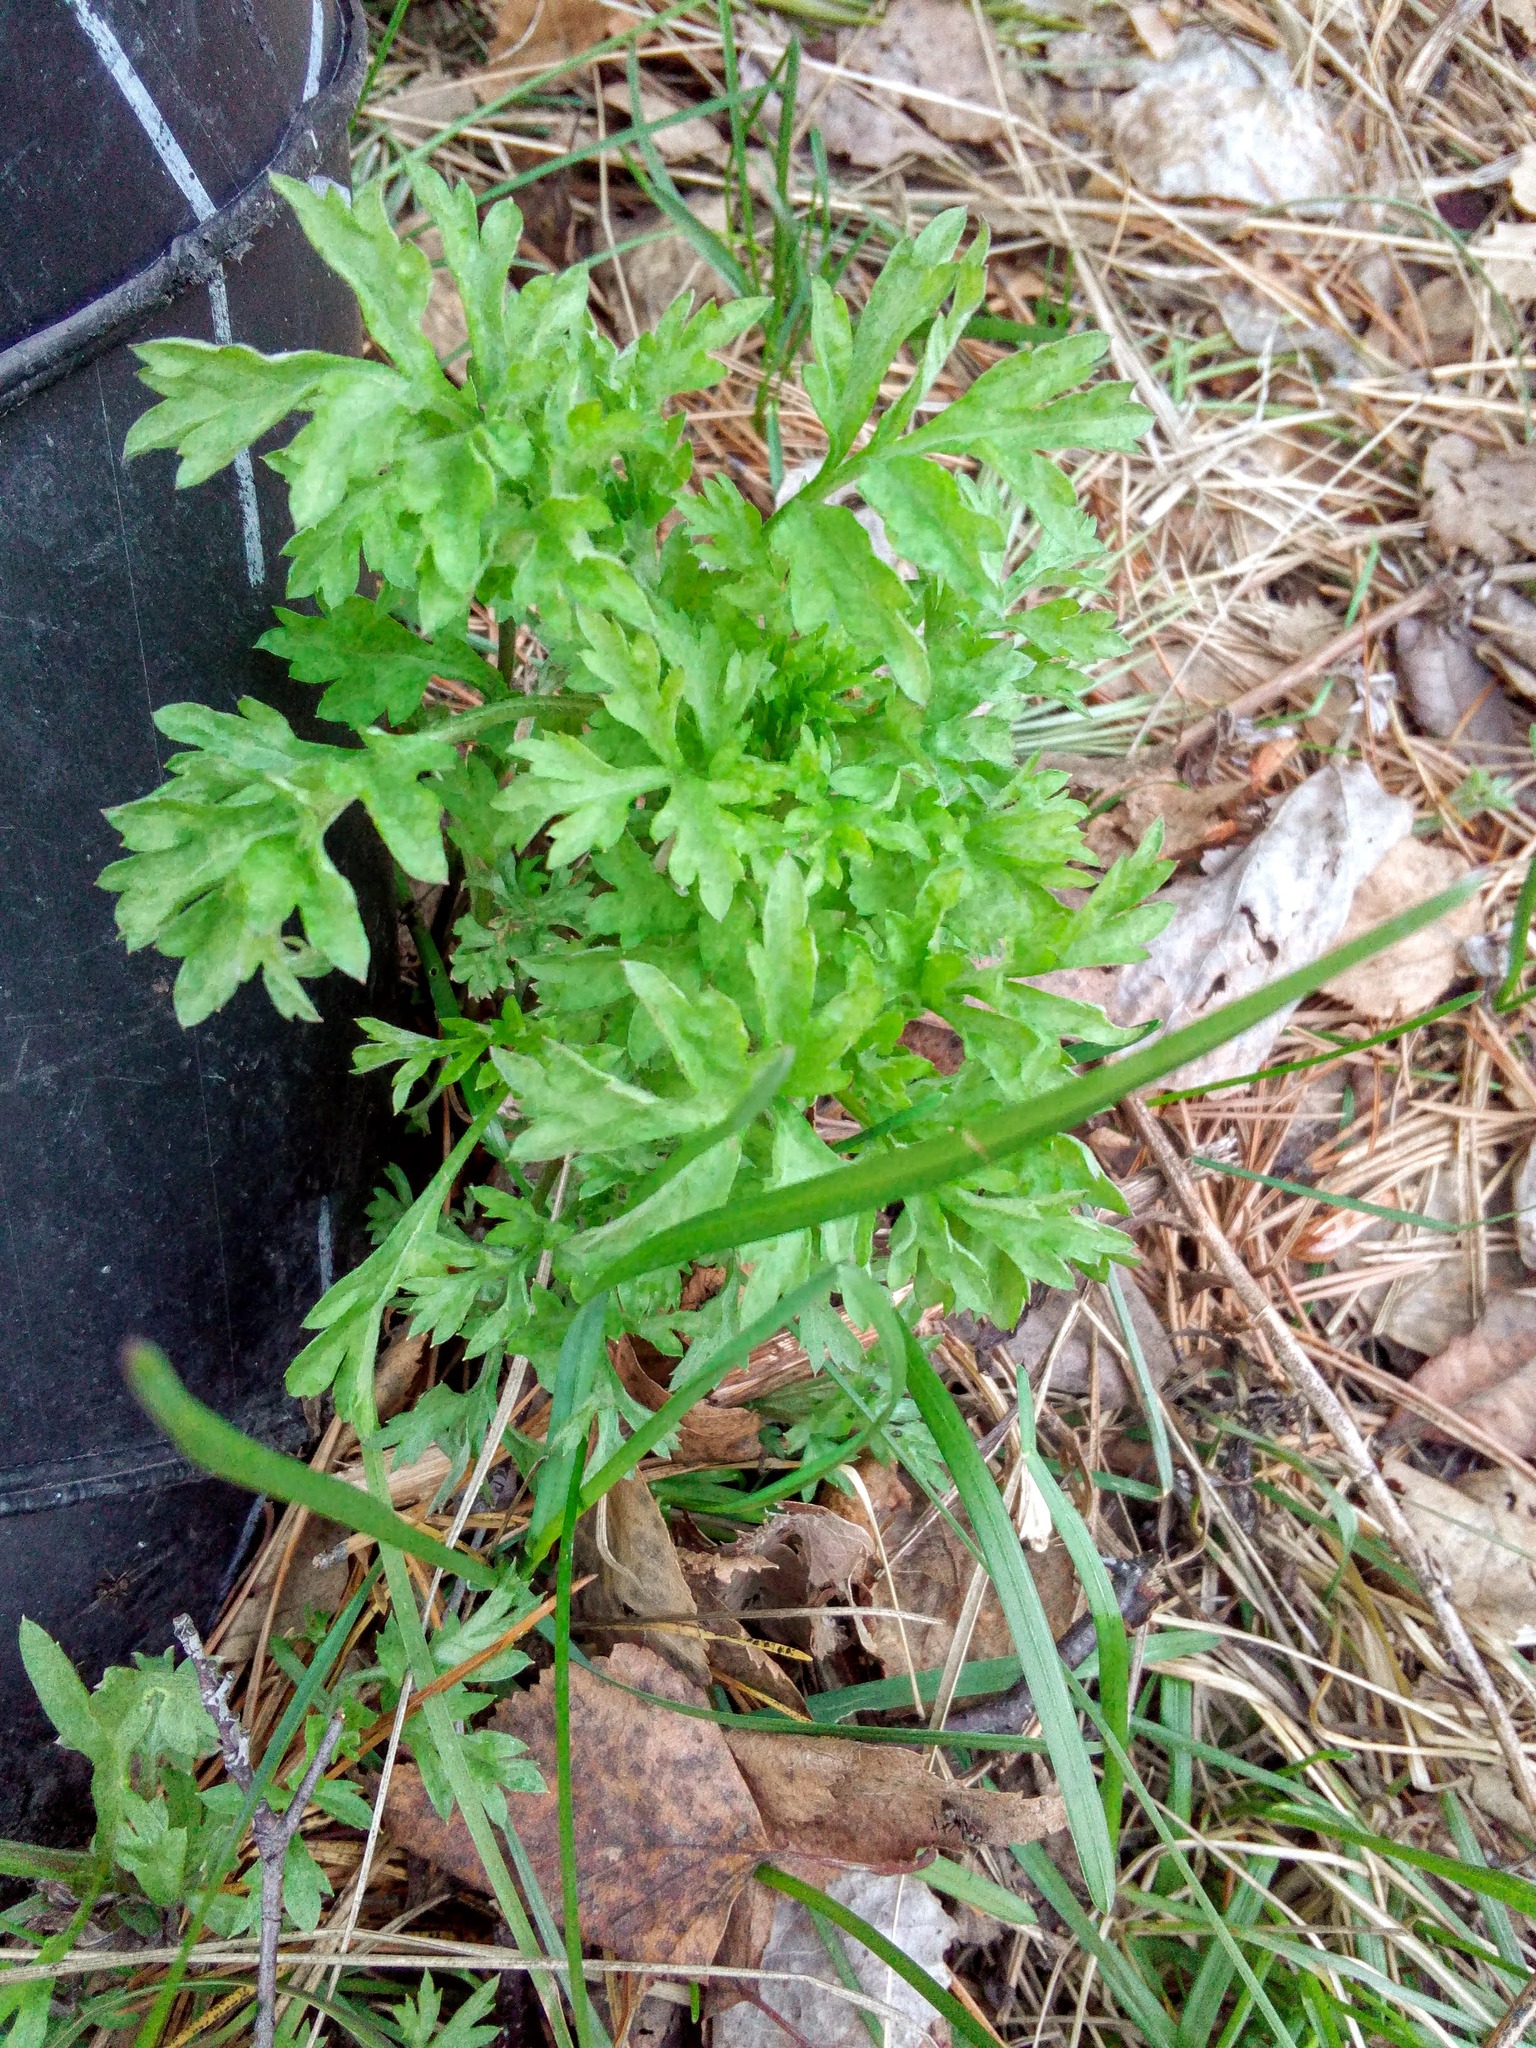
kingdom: Plantae
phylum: Tracheophyta
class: Magnoliopsida
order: Asterales
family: Asteraceae
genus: Artemisia
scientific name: Artemisia vulgaris
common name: Mugwort
